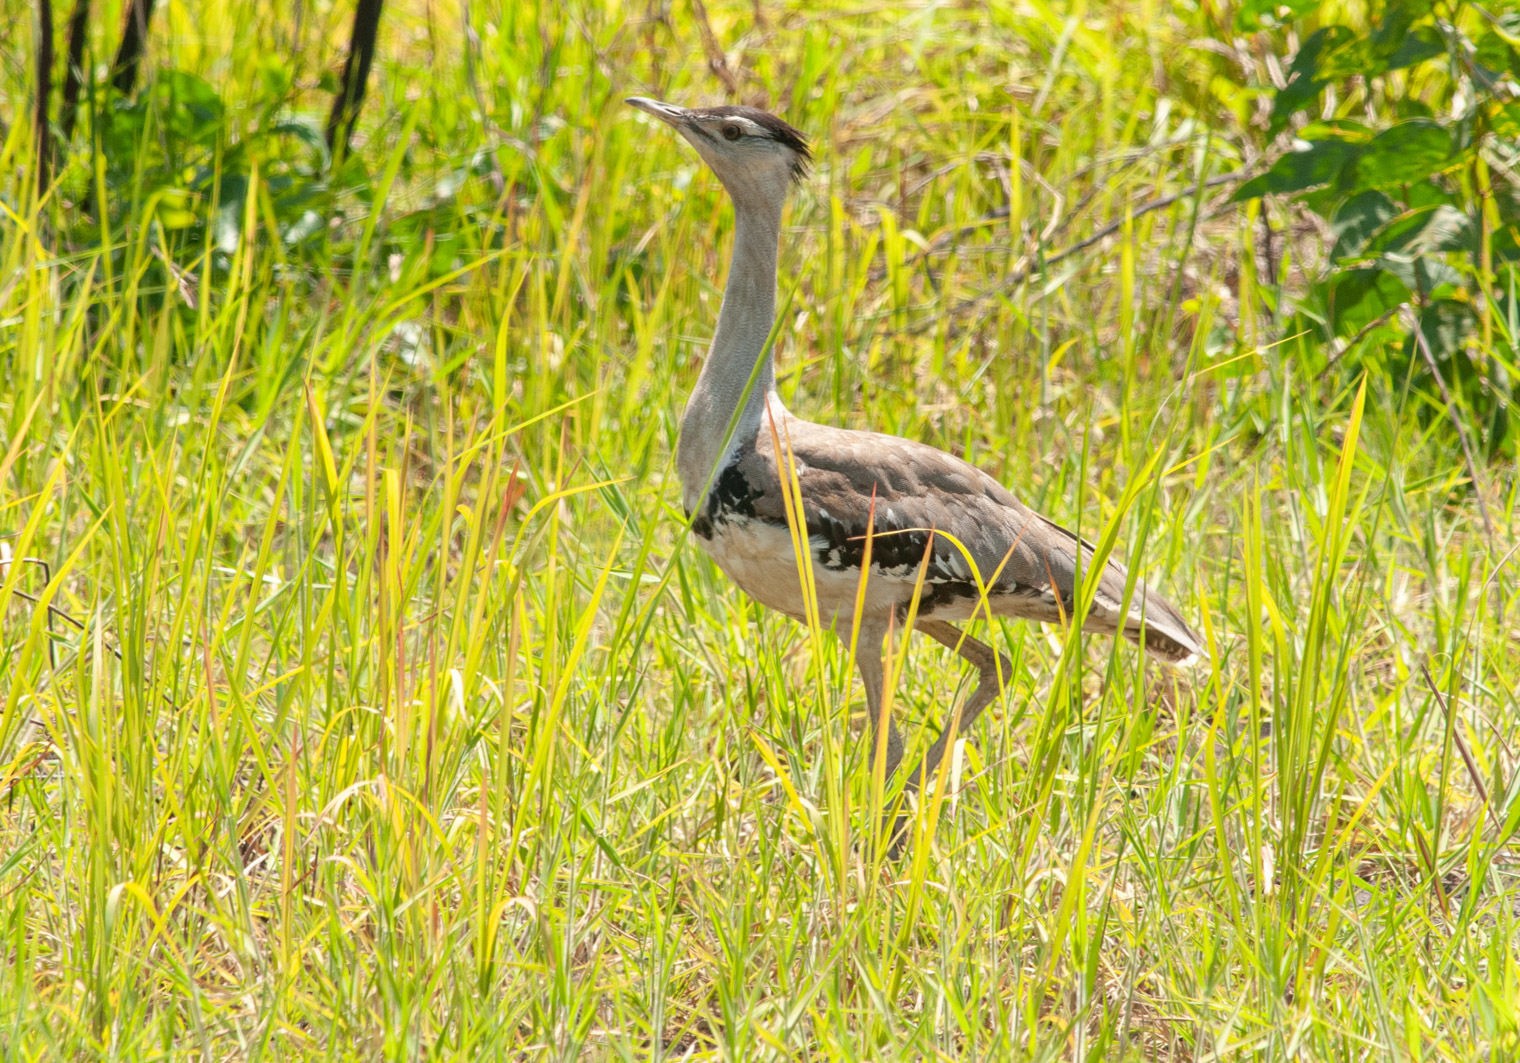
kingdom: Animalia
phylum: Chordata
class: Aves
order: Otidiformes
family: Otididae
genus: Ardeotis
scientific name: Ardeotis australis
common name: Australian bustard
